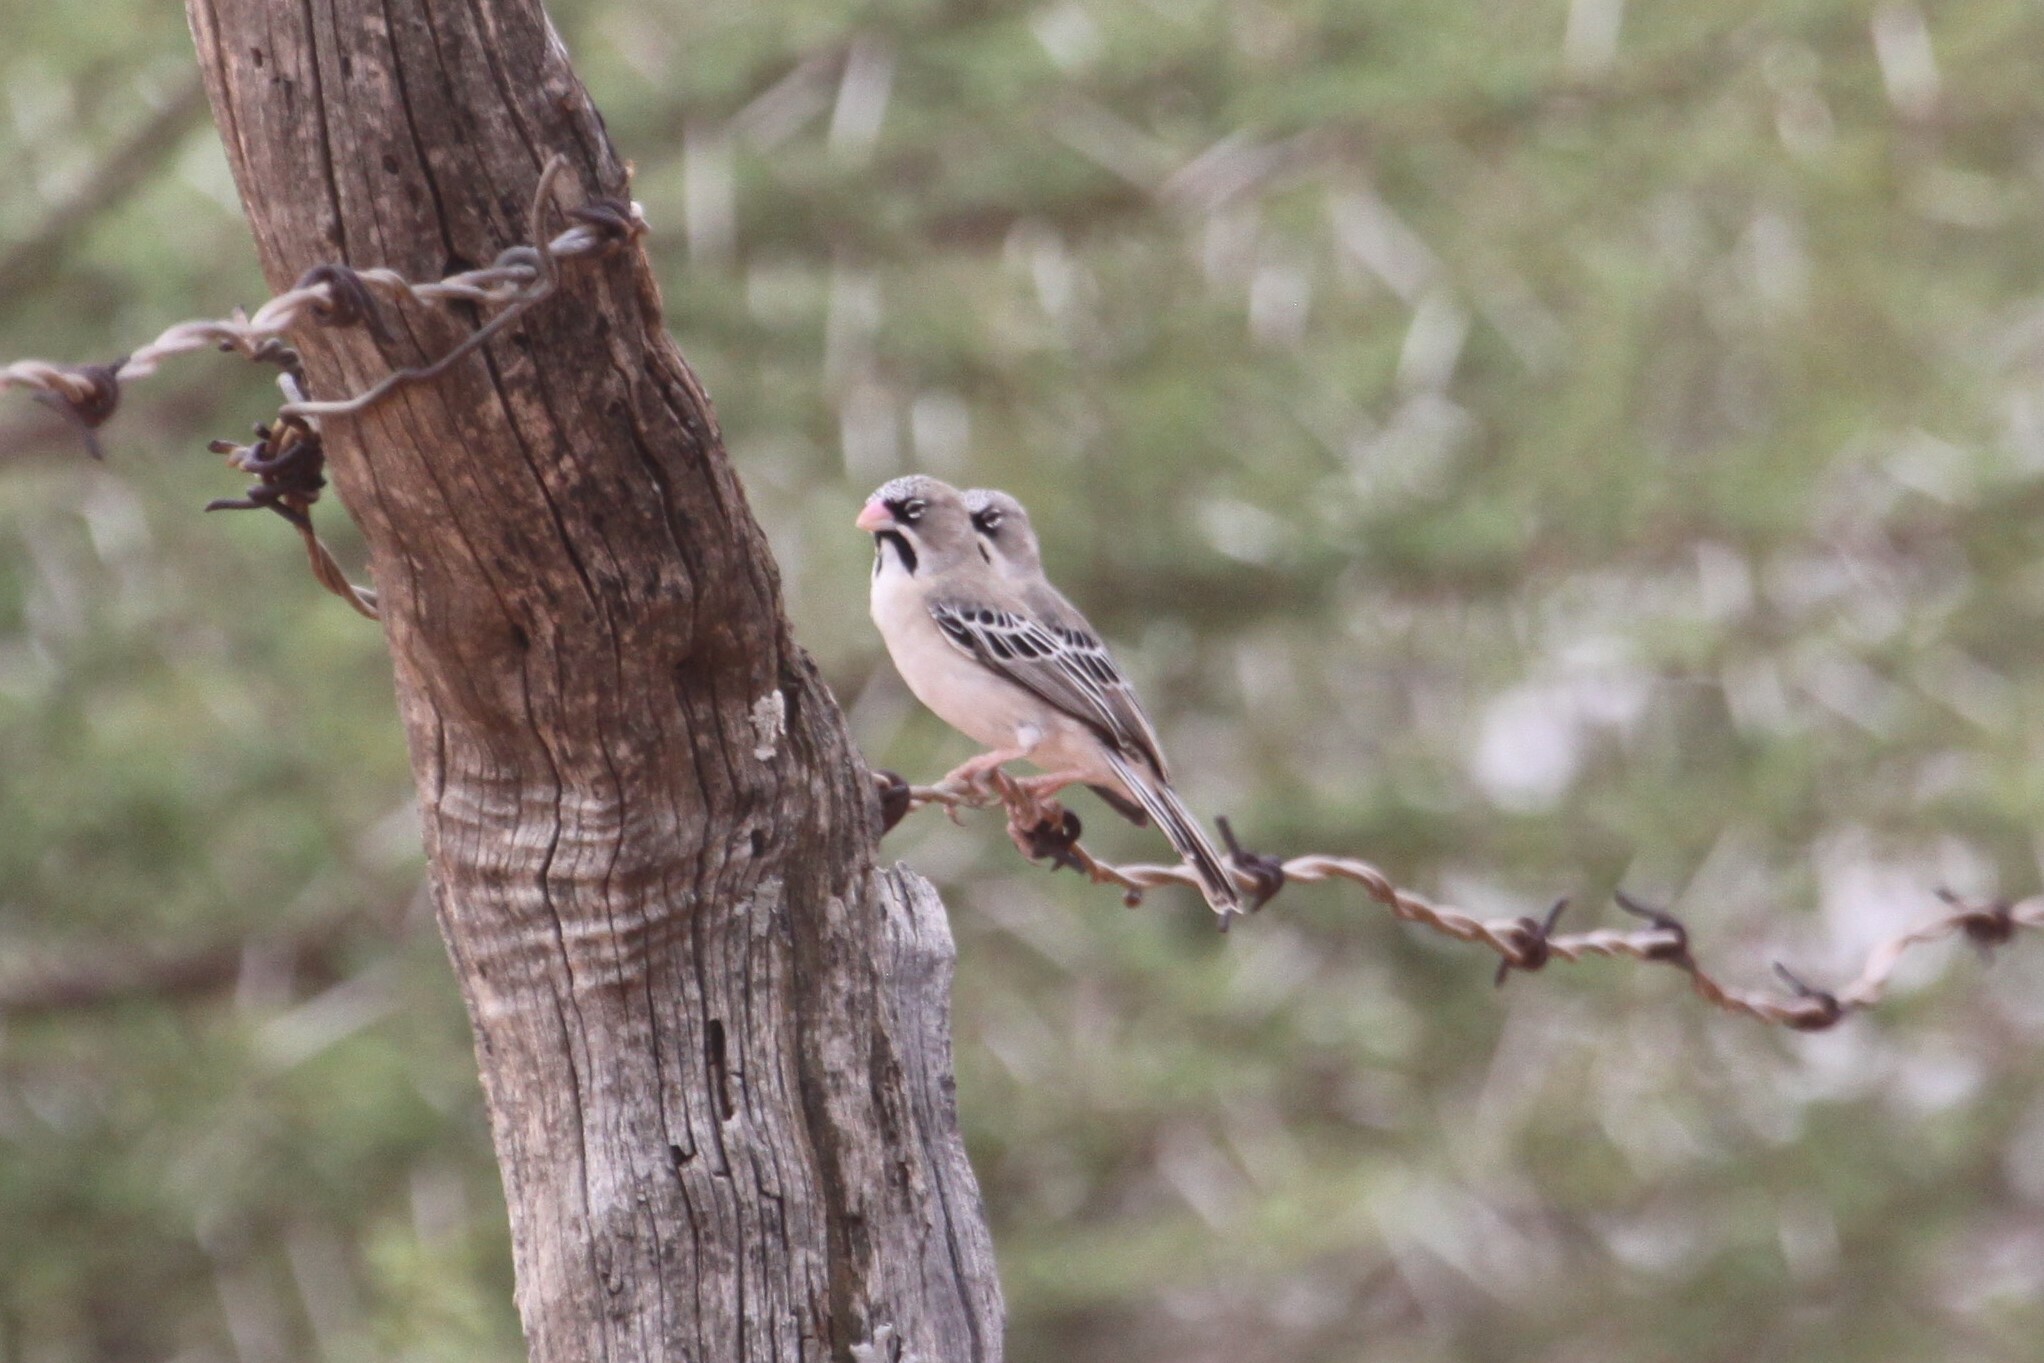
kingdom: Animalia
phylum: Chordata
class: Aves
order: Passeriformes
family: Ploceidae
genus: Sporopipes
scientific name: Sporopipes squamifrons
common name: Scaly-feathered weaver
